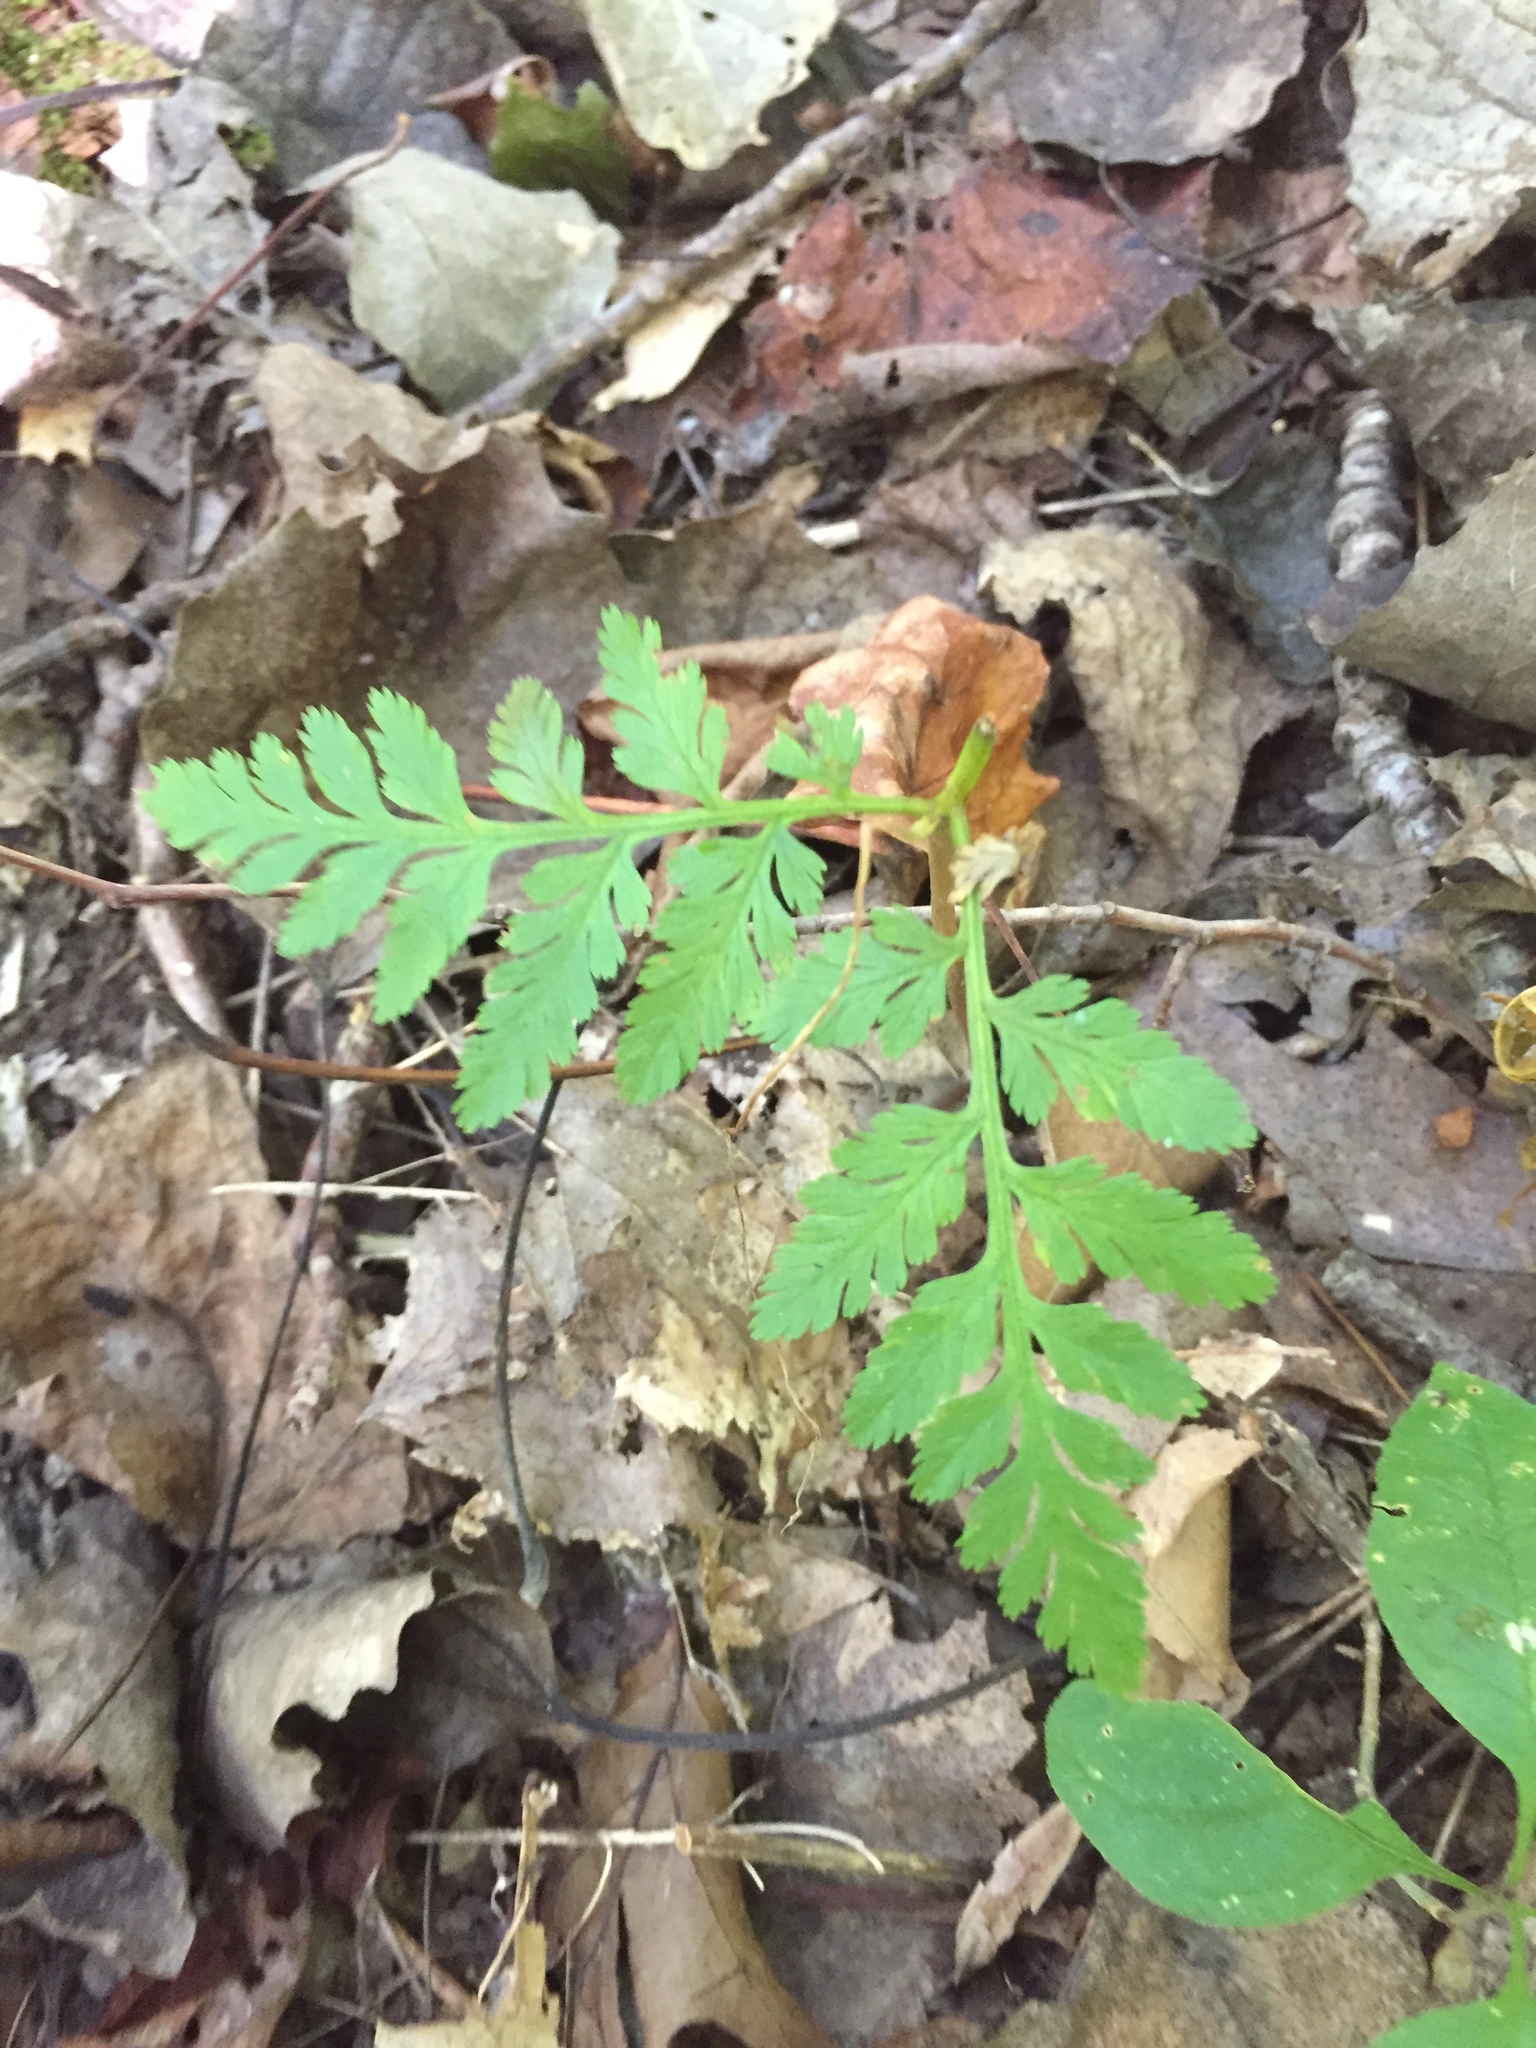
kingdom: Plantae
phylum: Tracheophyta
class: Polypodiopsida
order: Ophioglossales
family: Ophioglossaceae
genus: Botrypus
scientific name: Botrypus virginianus
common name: Common grapefern
